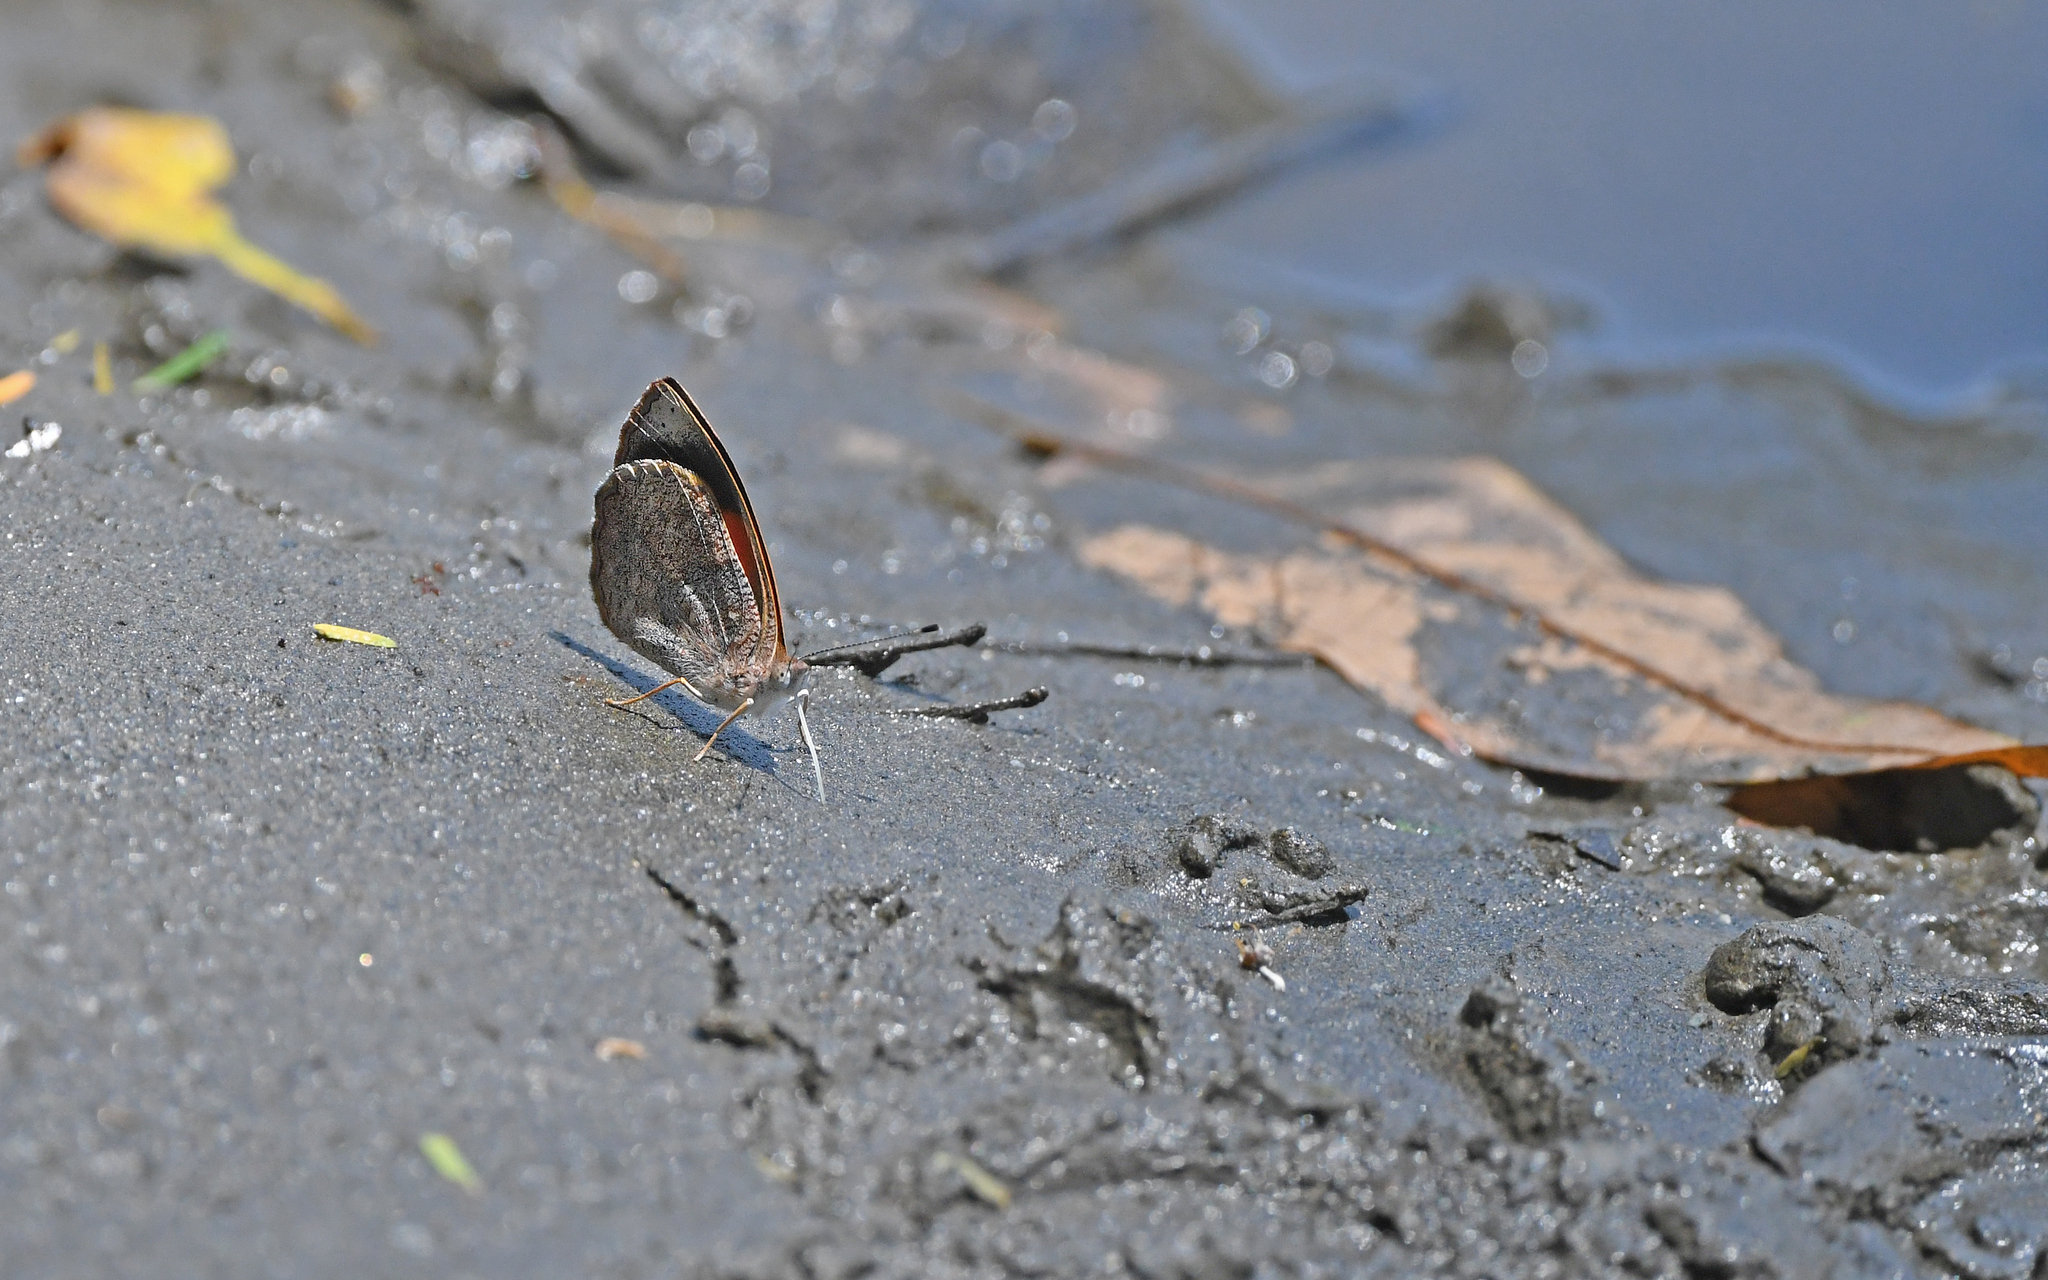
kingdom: Animalia
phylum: Arthropoda
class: Insecta
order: Lepidoptera
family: Nymphalidae
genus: Haematera
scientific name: Haematera pyrame
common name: Blind eighty-eight
